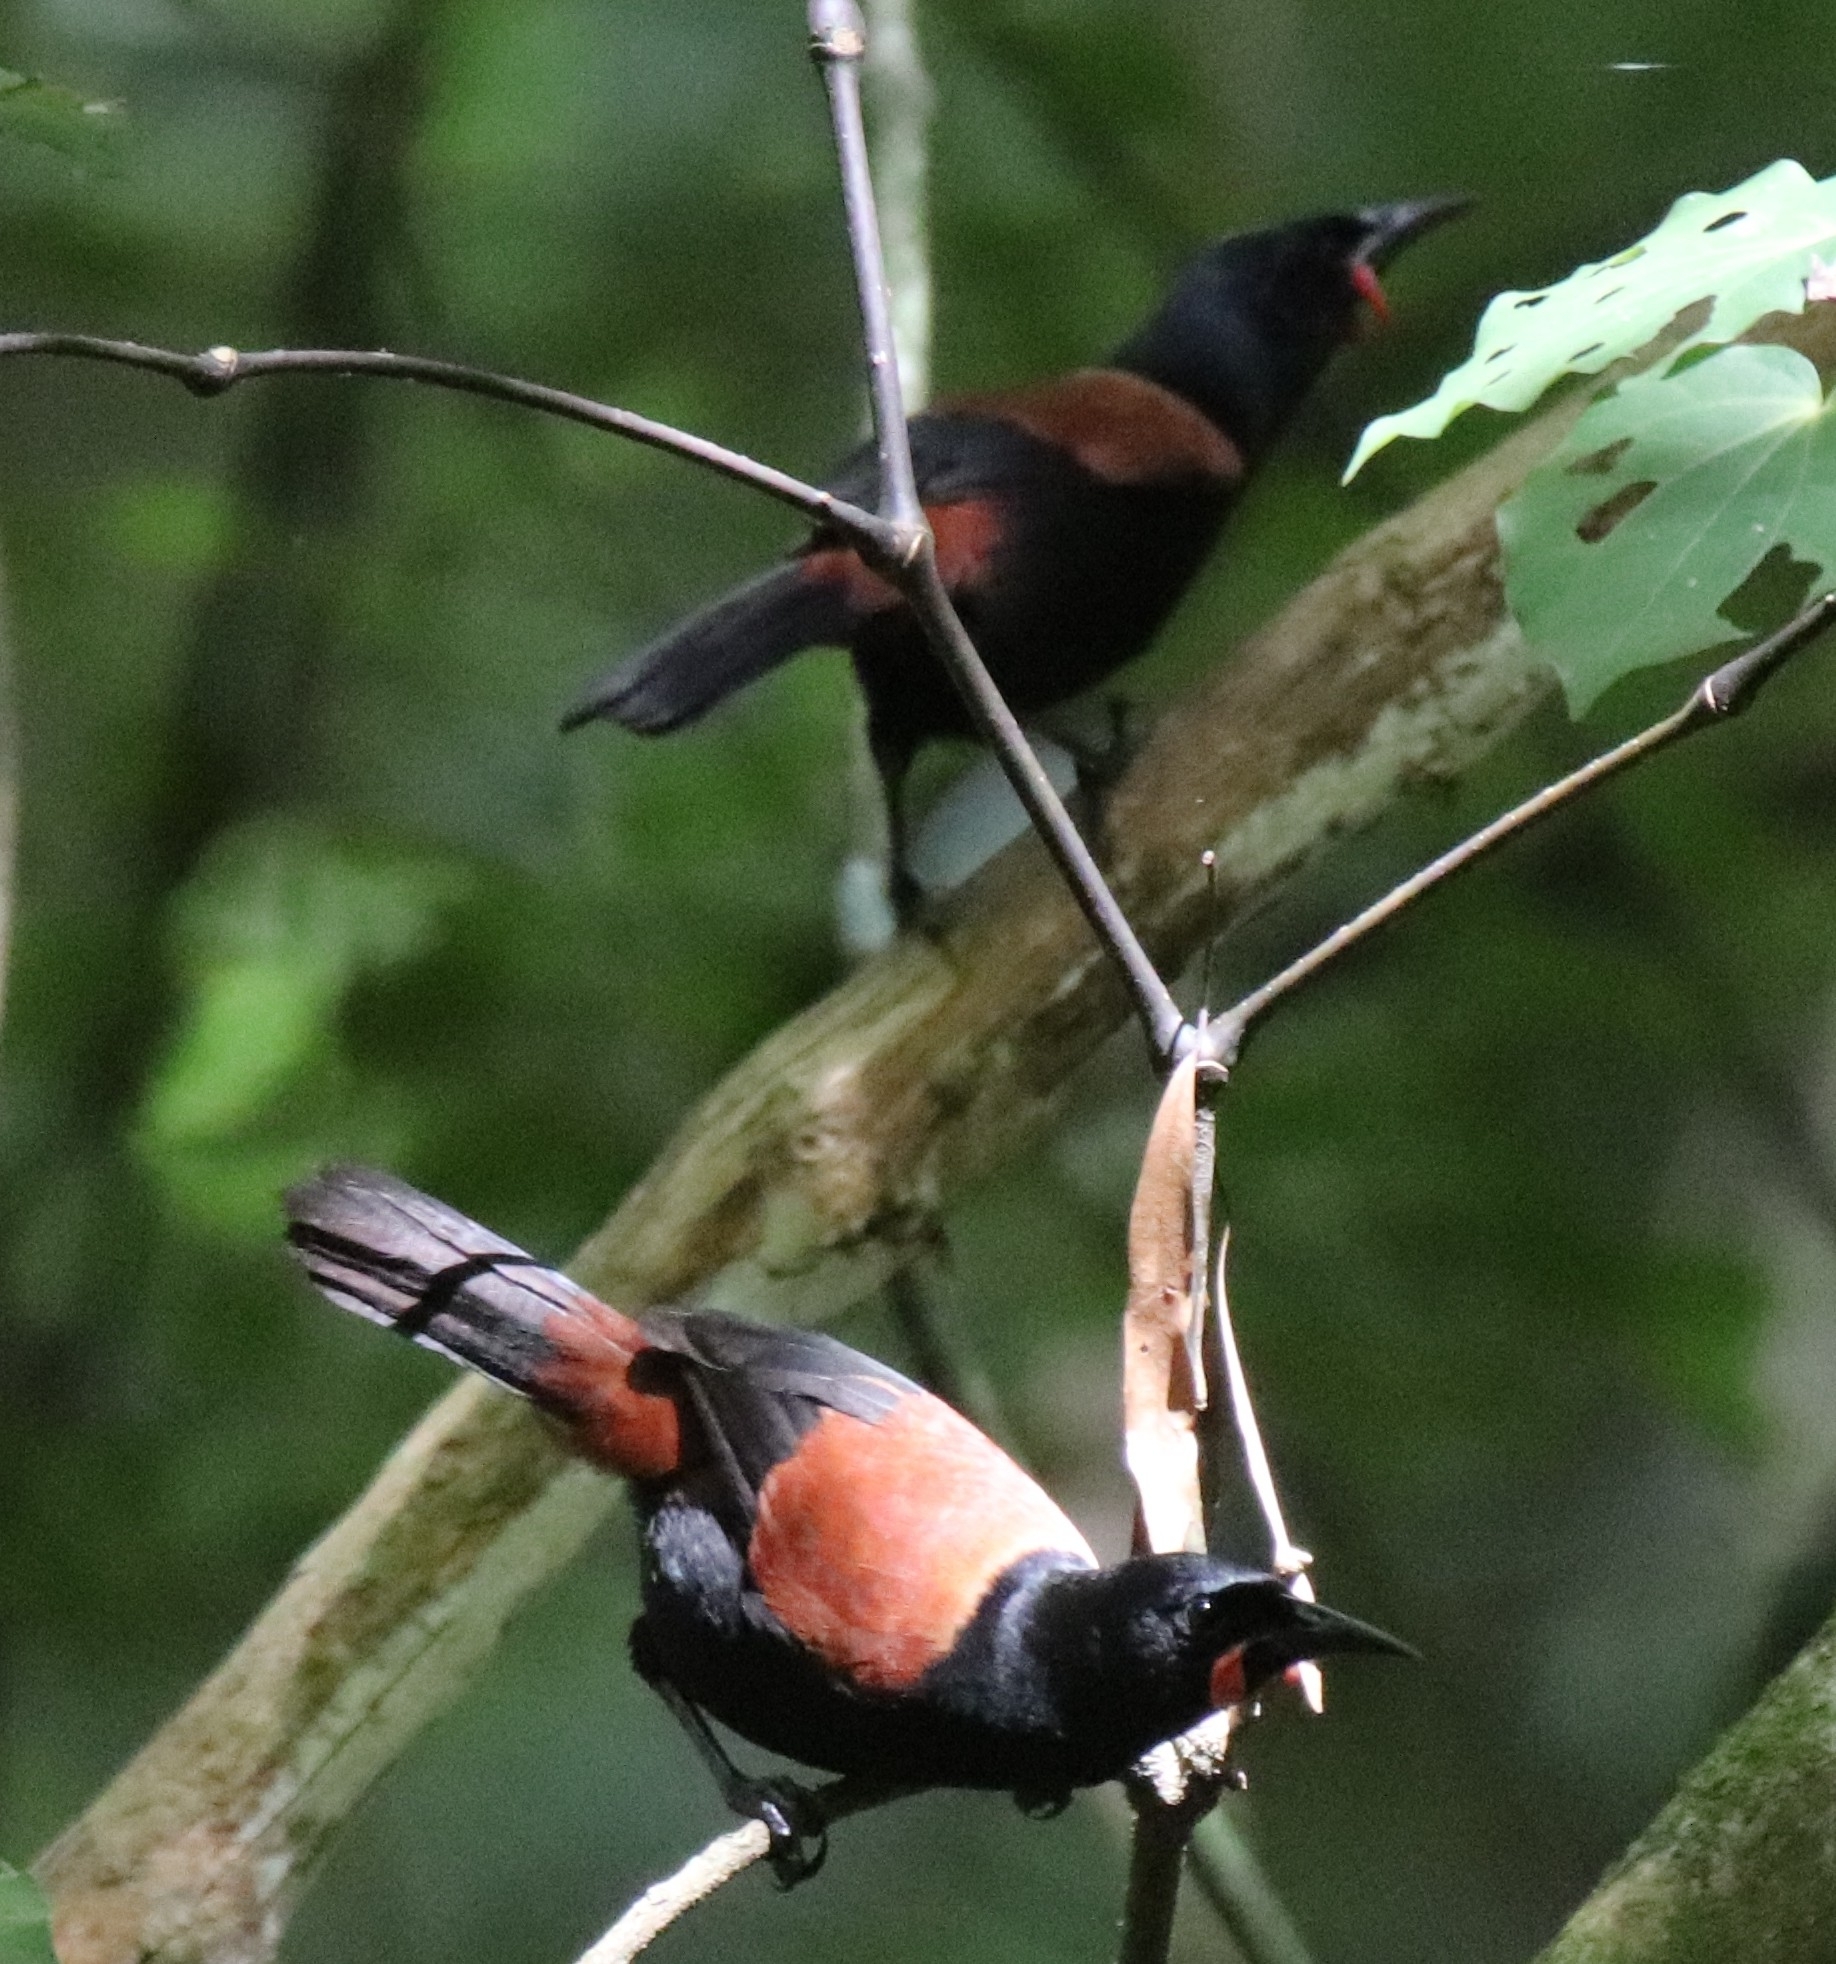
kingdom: Animalia
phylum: Chordata
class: Aves
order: Passeriformes
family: Callaeatidae
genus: Philesturnus
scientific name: Philesturnus carunculatus
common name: South island saddleback
